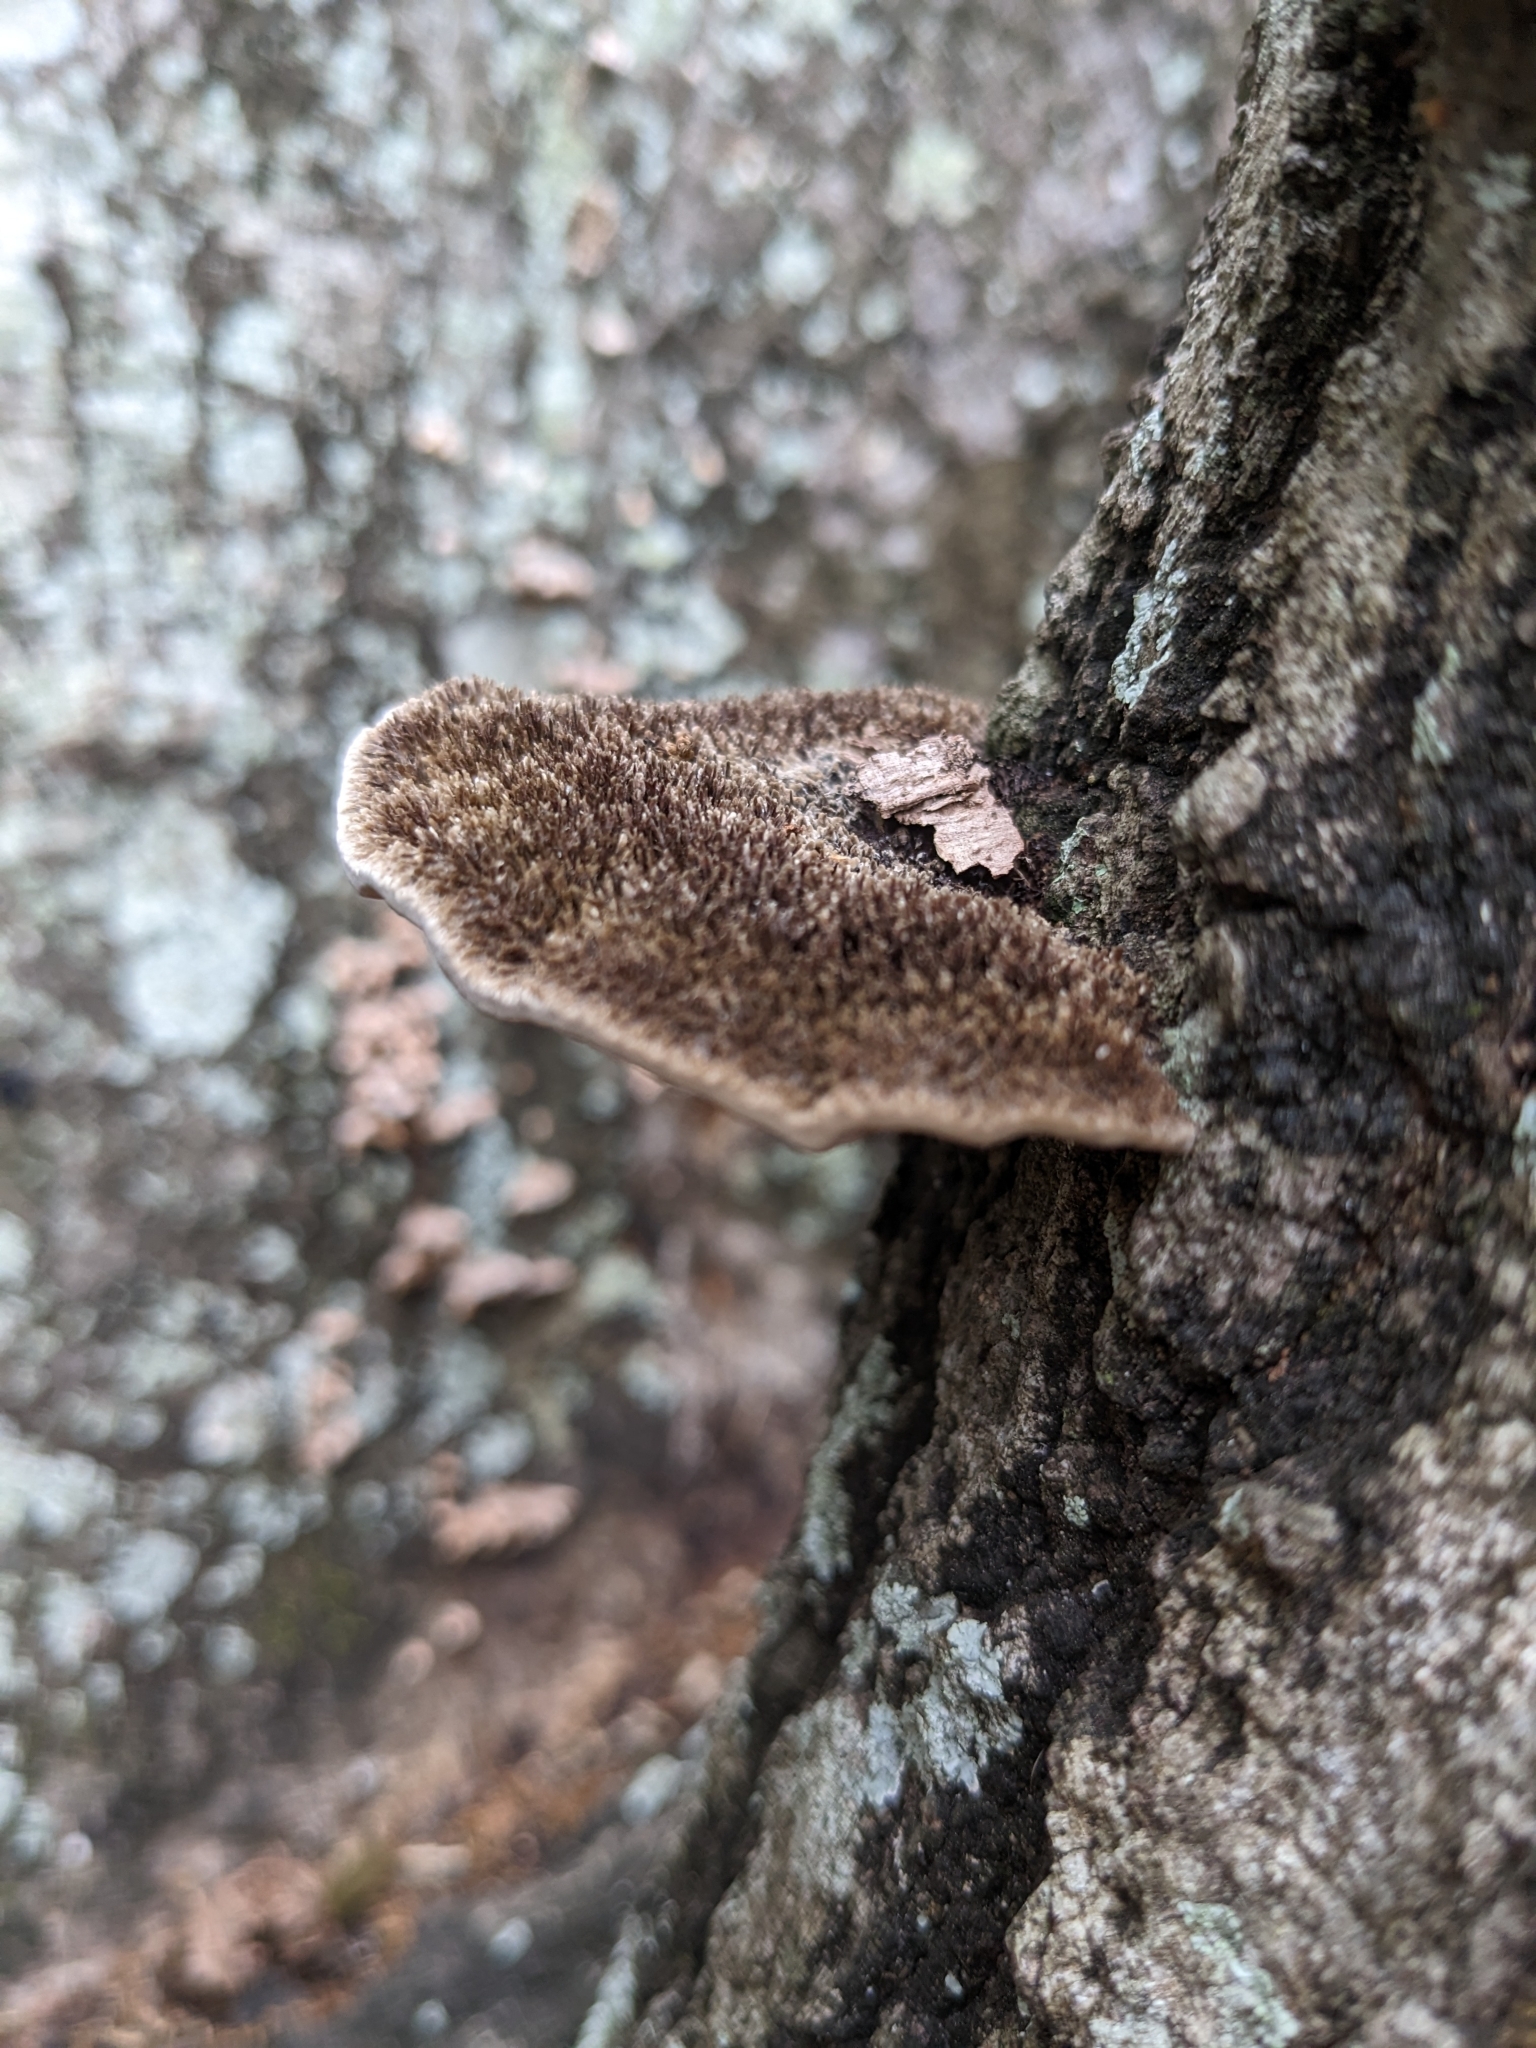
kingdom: Fungi
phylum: Basidiomycota
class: Agaricomycetes
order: Polyporales
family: Cerrenaceae
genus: Cerrena
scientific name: Cerrena hydnoides
